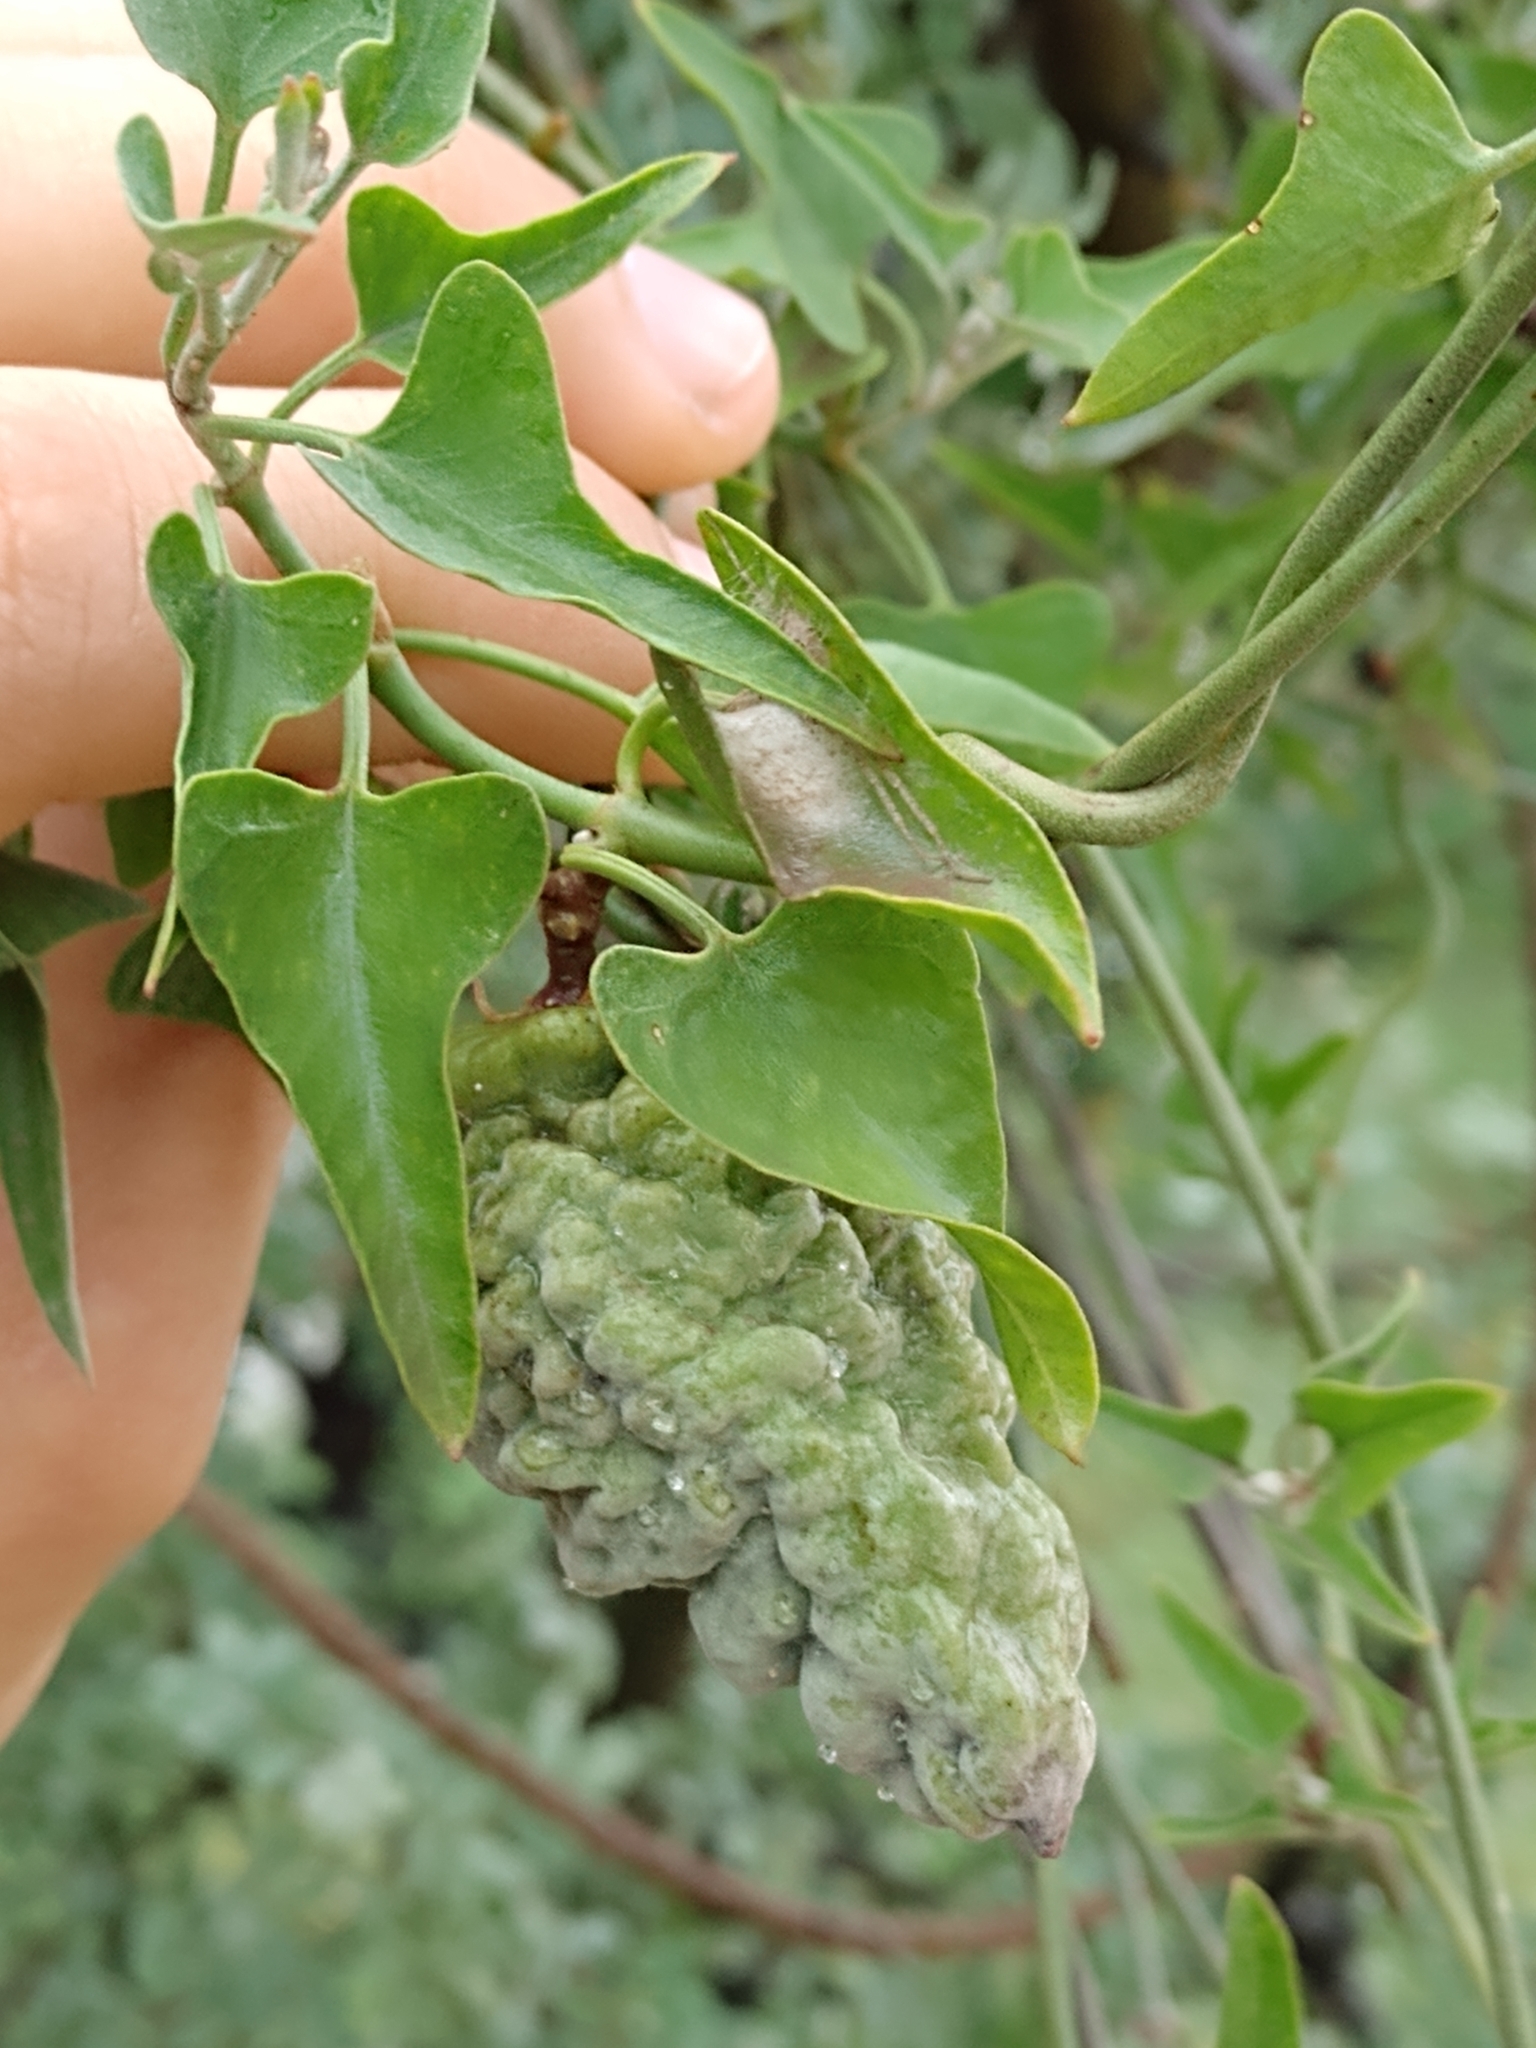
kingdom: Plantae
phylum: Tracheophyta
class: Magnoliopsida
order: Gentianales
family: Apocynaceae
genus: Araujia
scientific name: Araujia brachystephana
